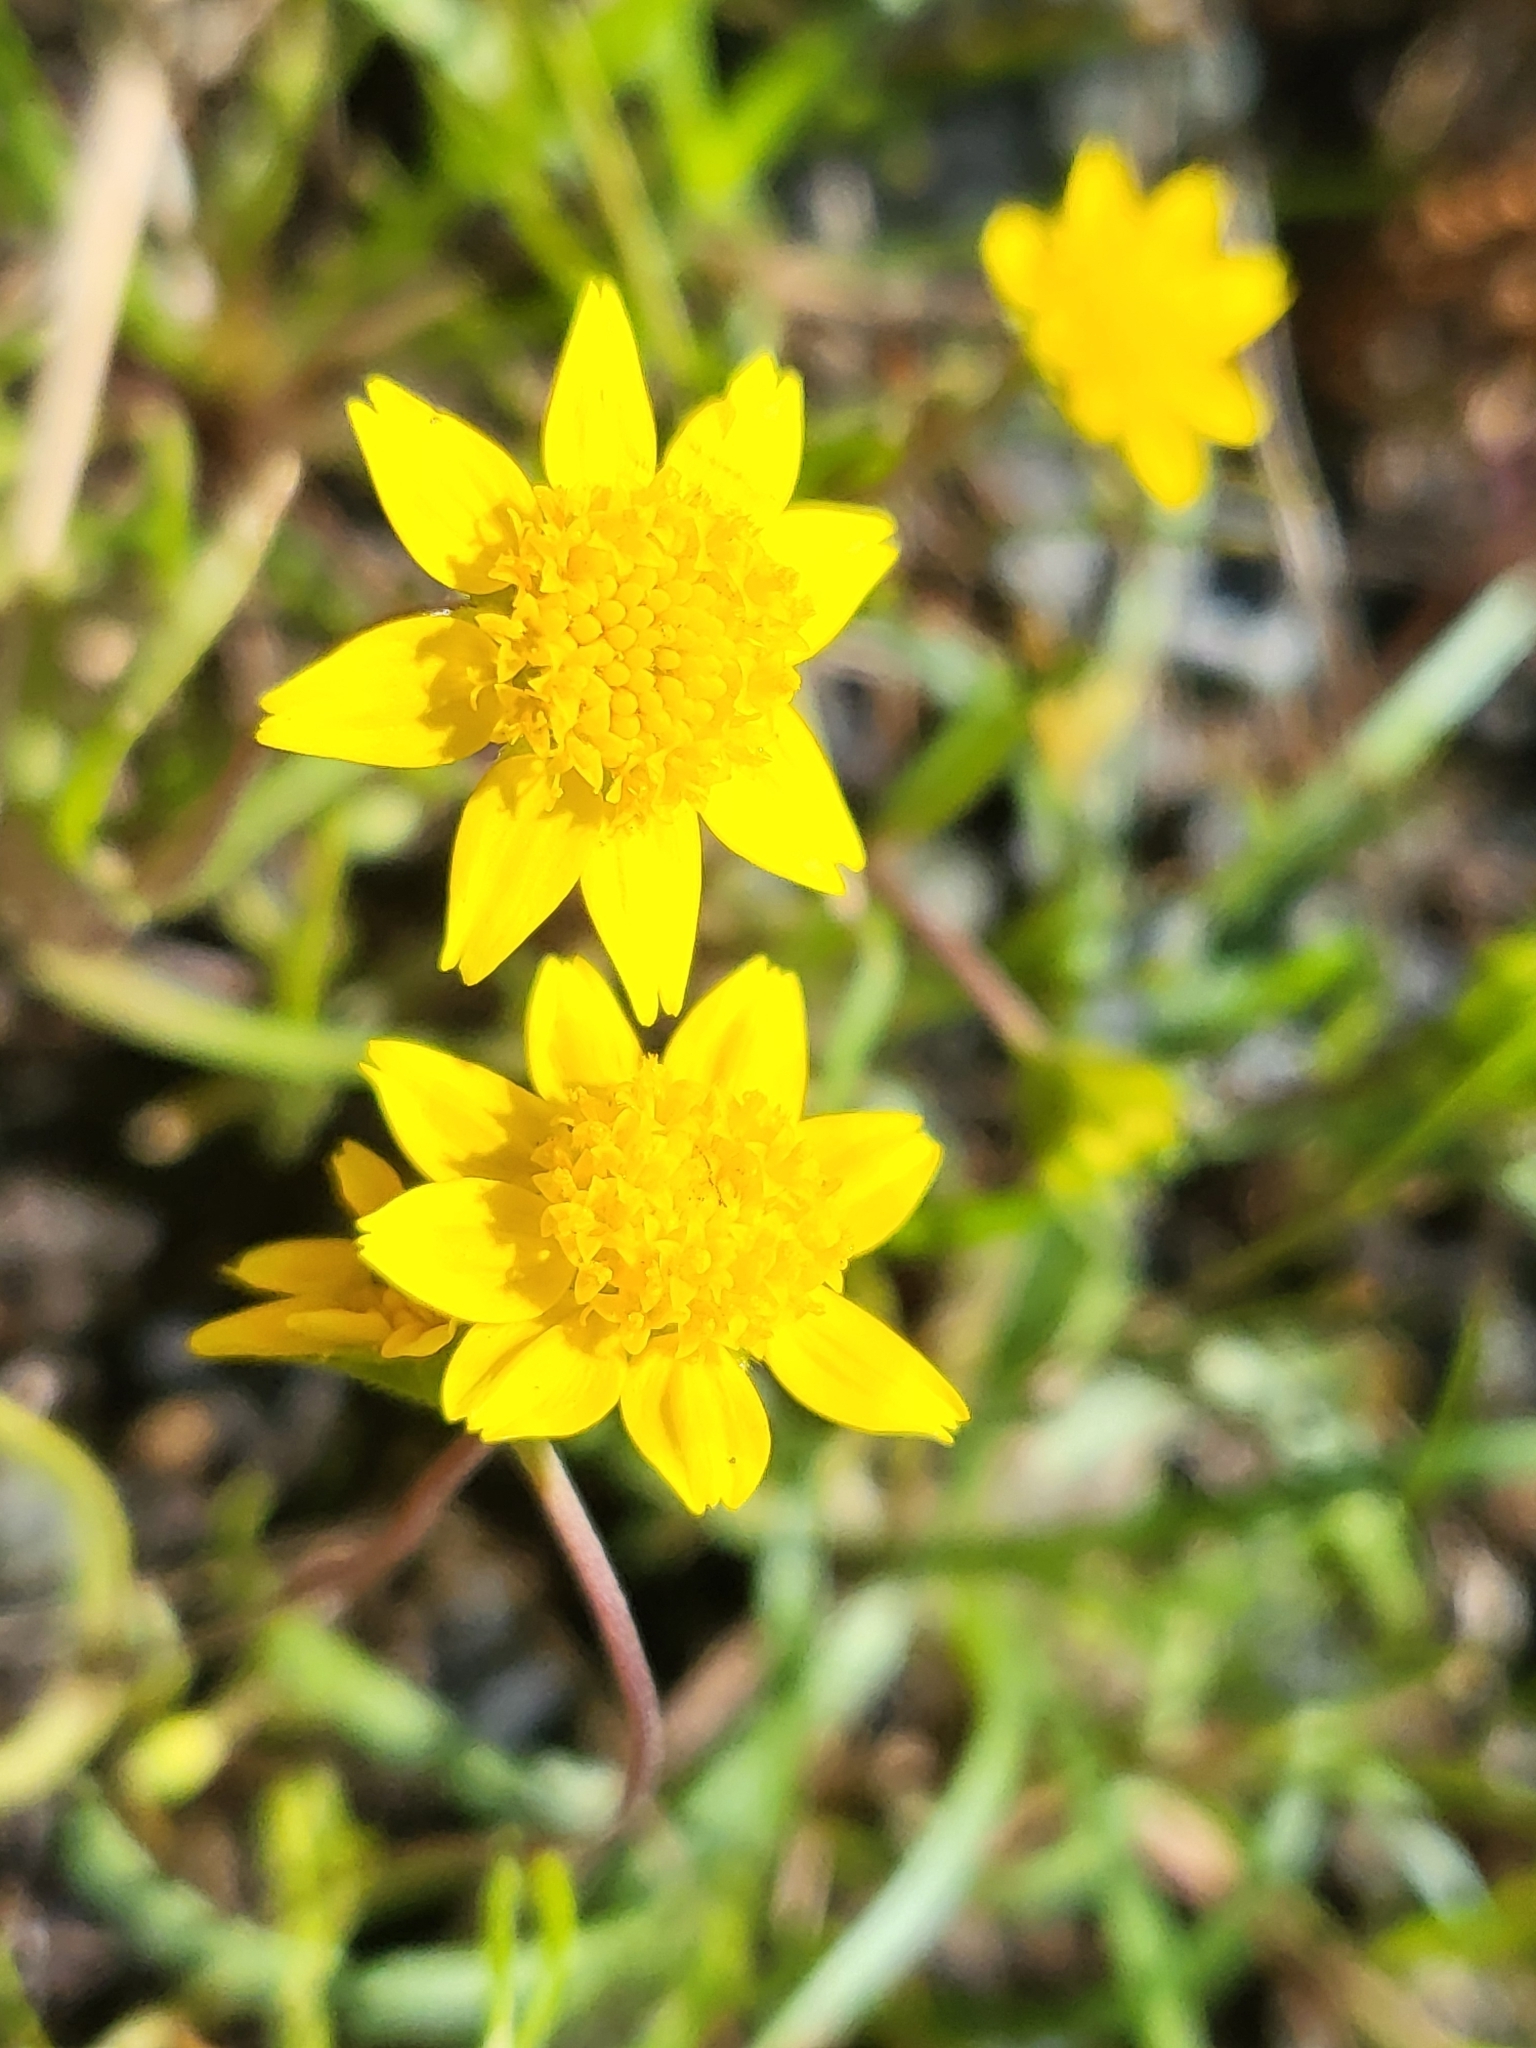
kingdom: Plantae
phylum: Tracheophyta
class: Magnoliopsida
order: Asterales
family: Asteraceae
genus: Lasthenia
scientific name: Lasthenia californica
